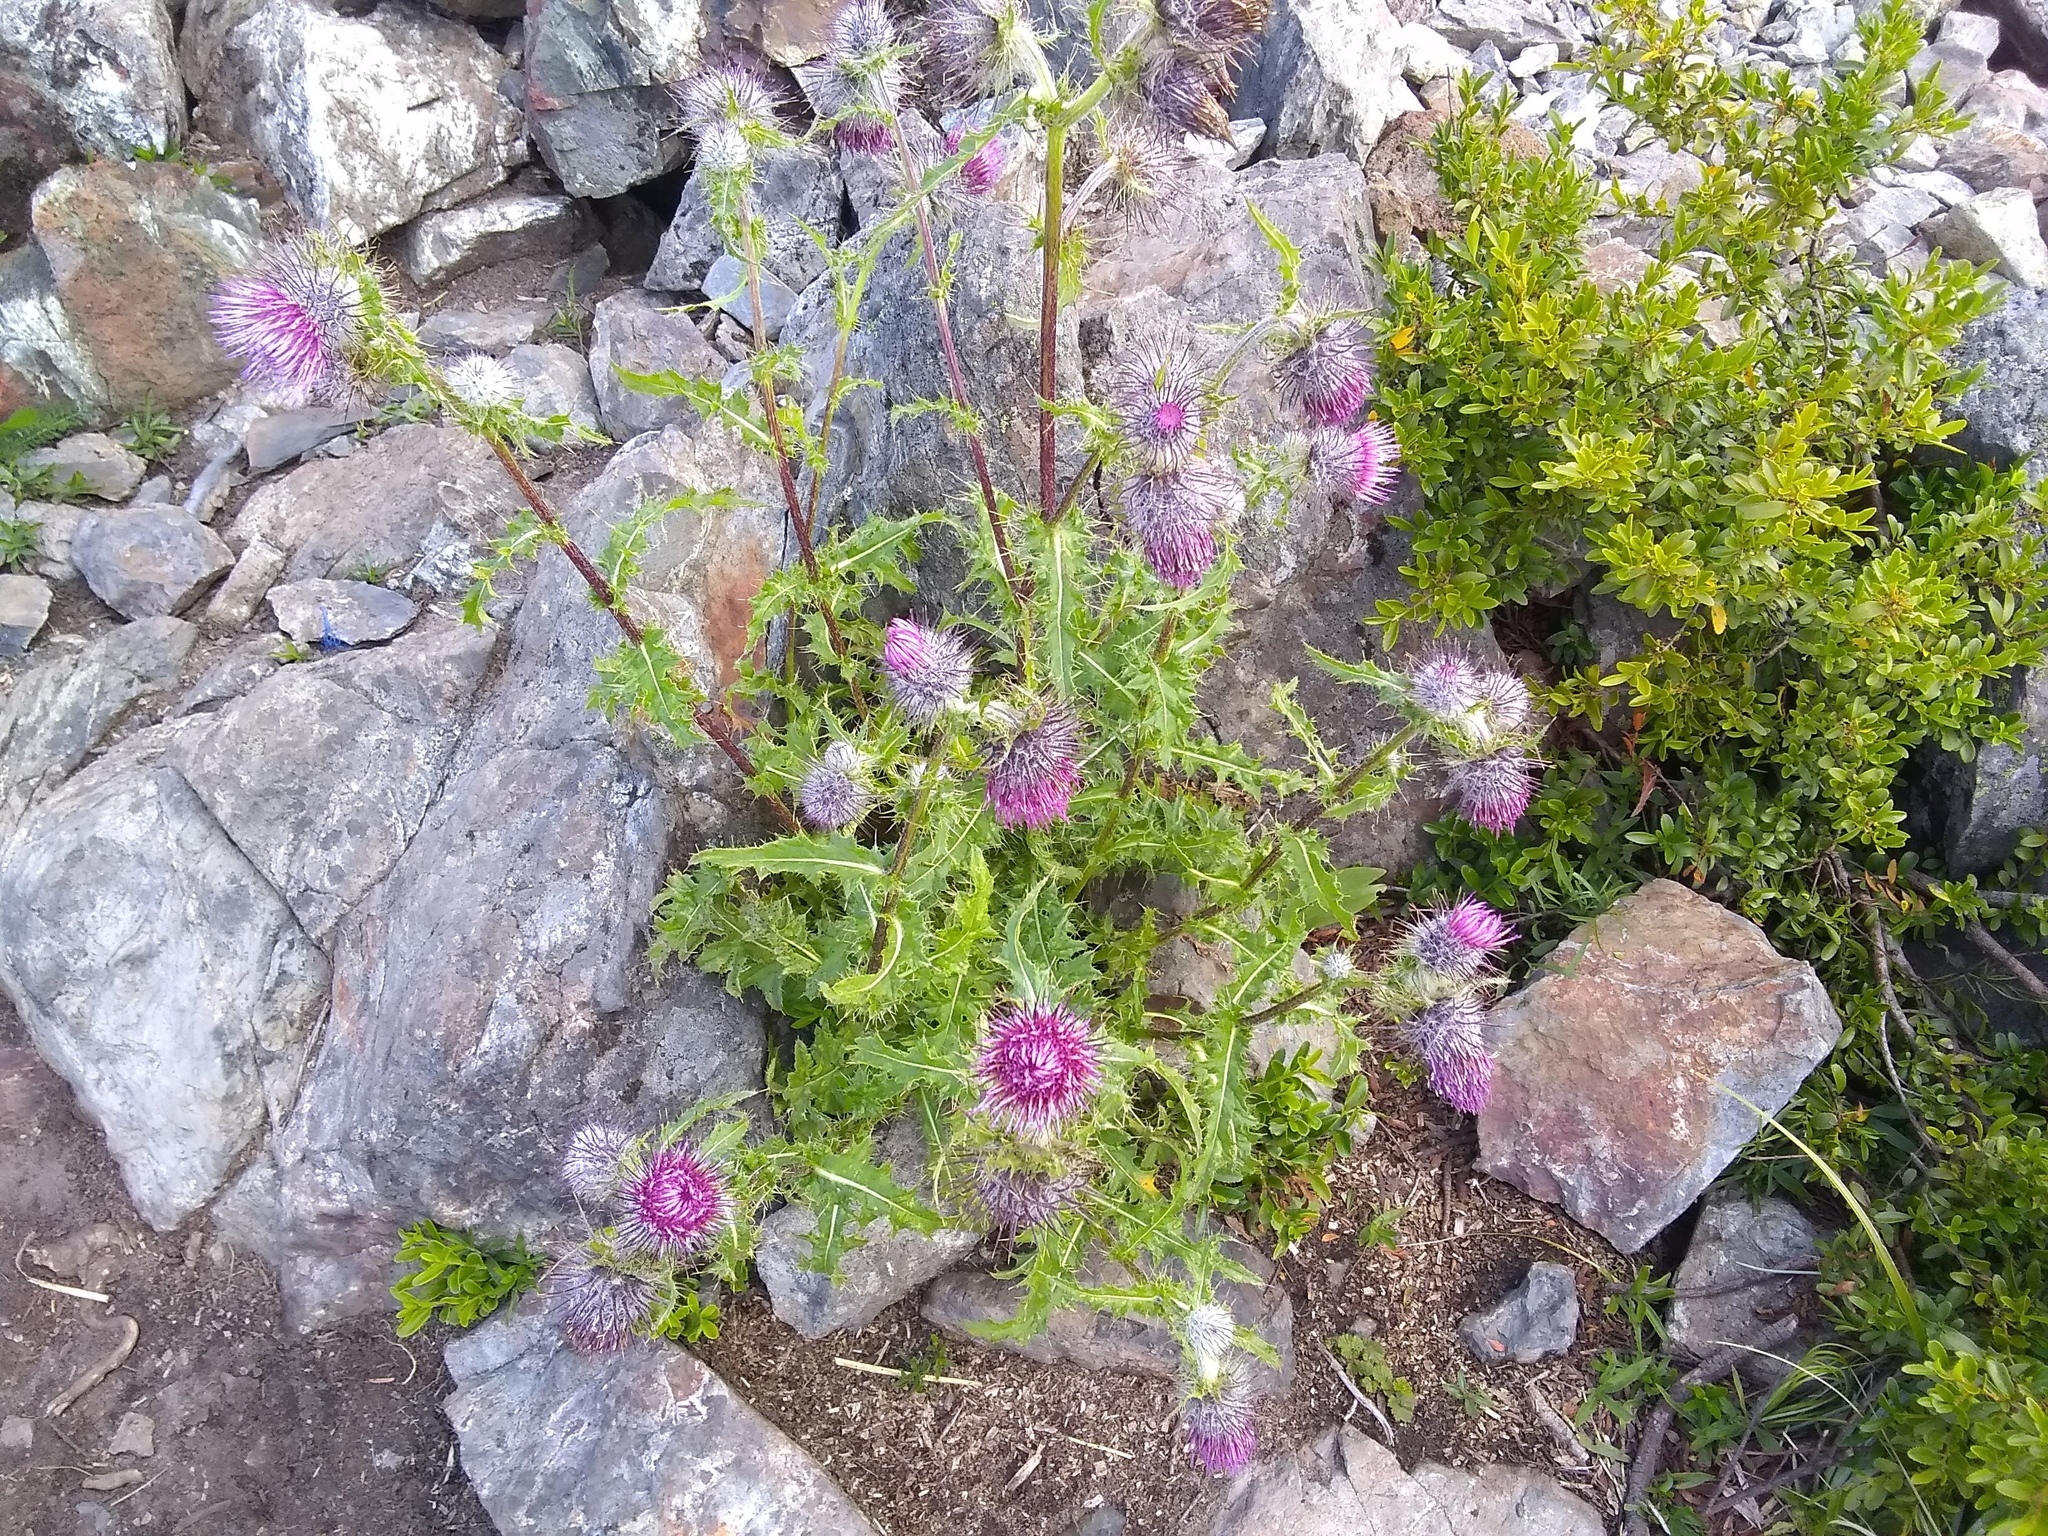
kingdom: Plantae
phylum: Tracheophyta
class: Magnoliopsida
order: Asterales
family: Asteraceae
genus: Cirsium
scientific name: Cirsium edule
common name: Indian thistle
